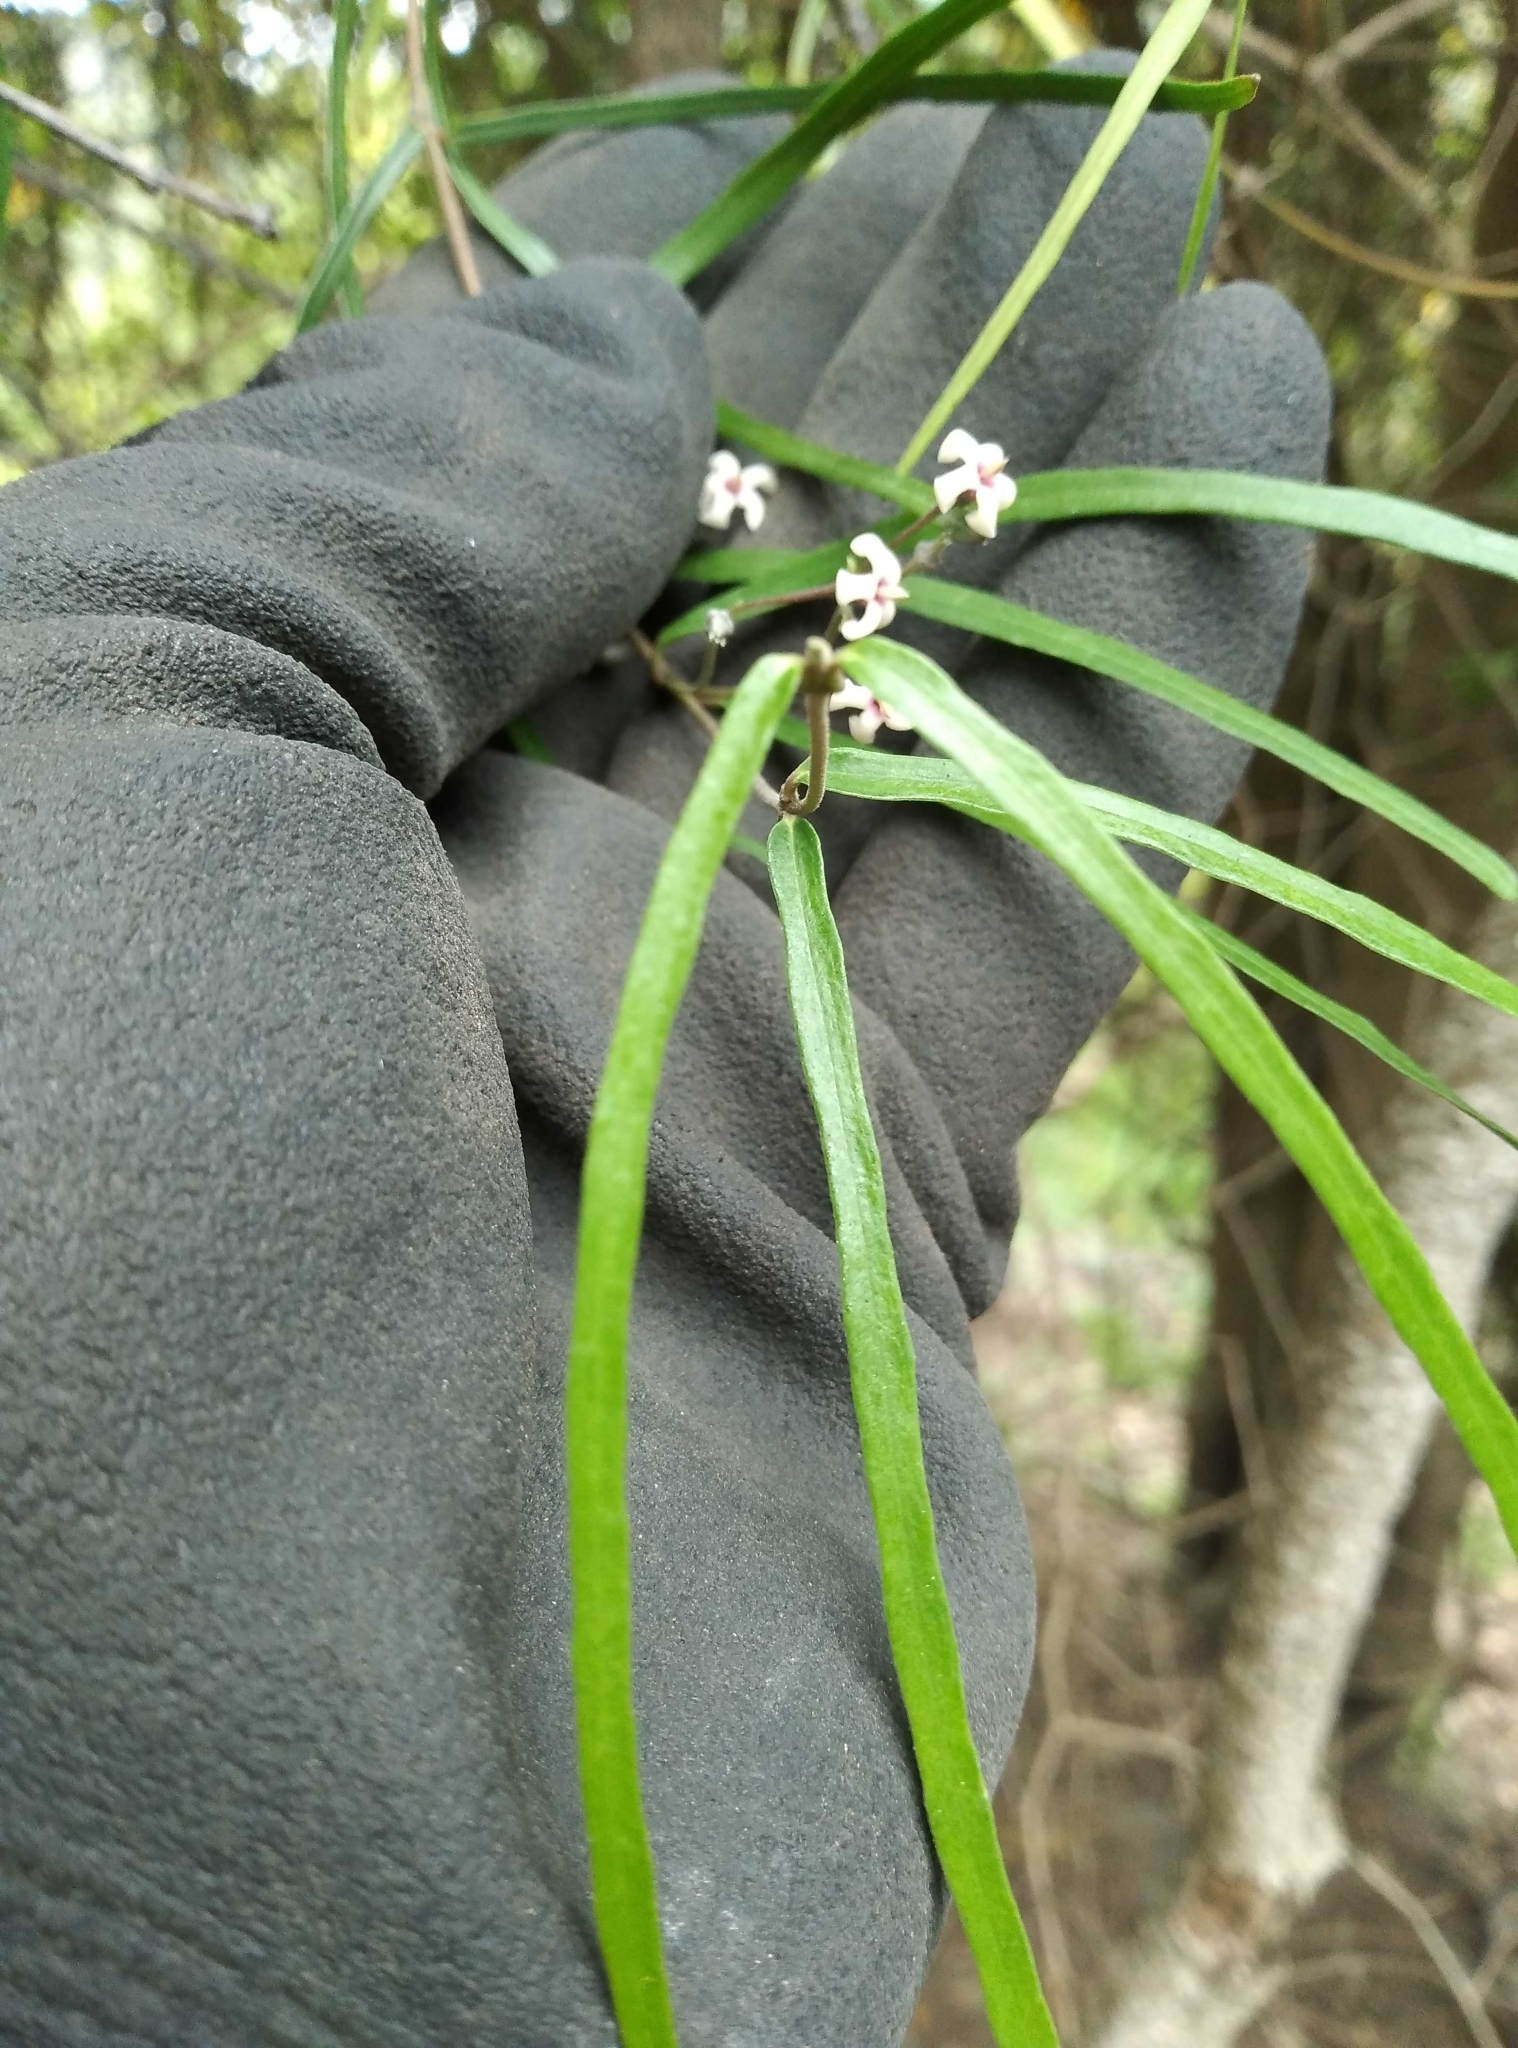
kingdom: Plantae
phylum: Tracheophyta
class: Magnoliopsida
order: Santalales
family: Loranthaceae
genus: Ileostylus
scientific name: Ileostylus micranthus
